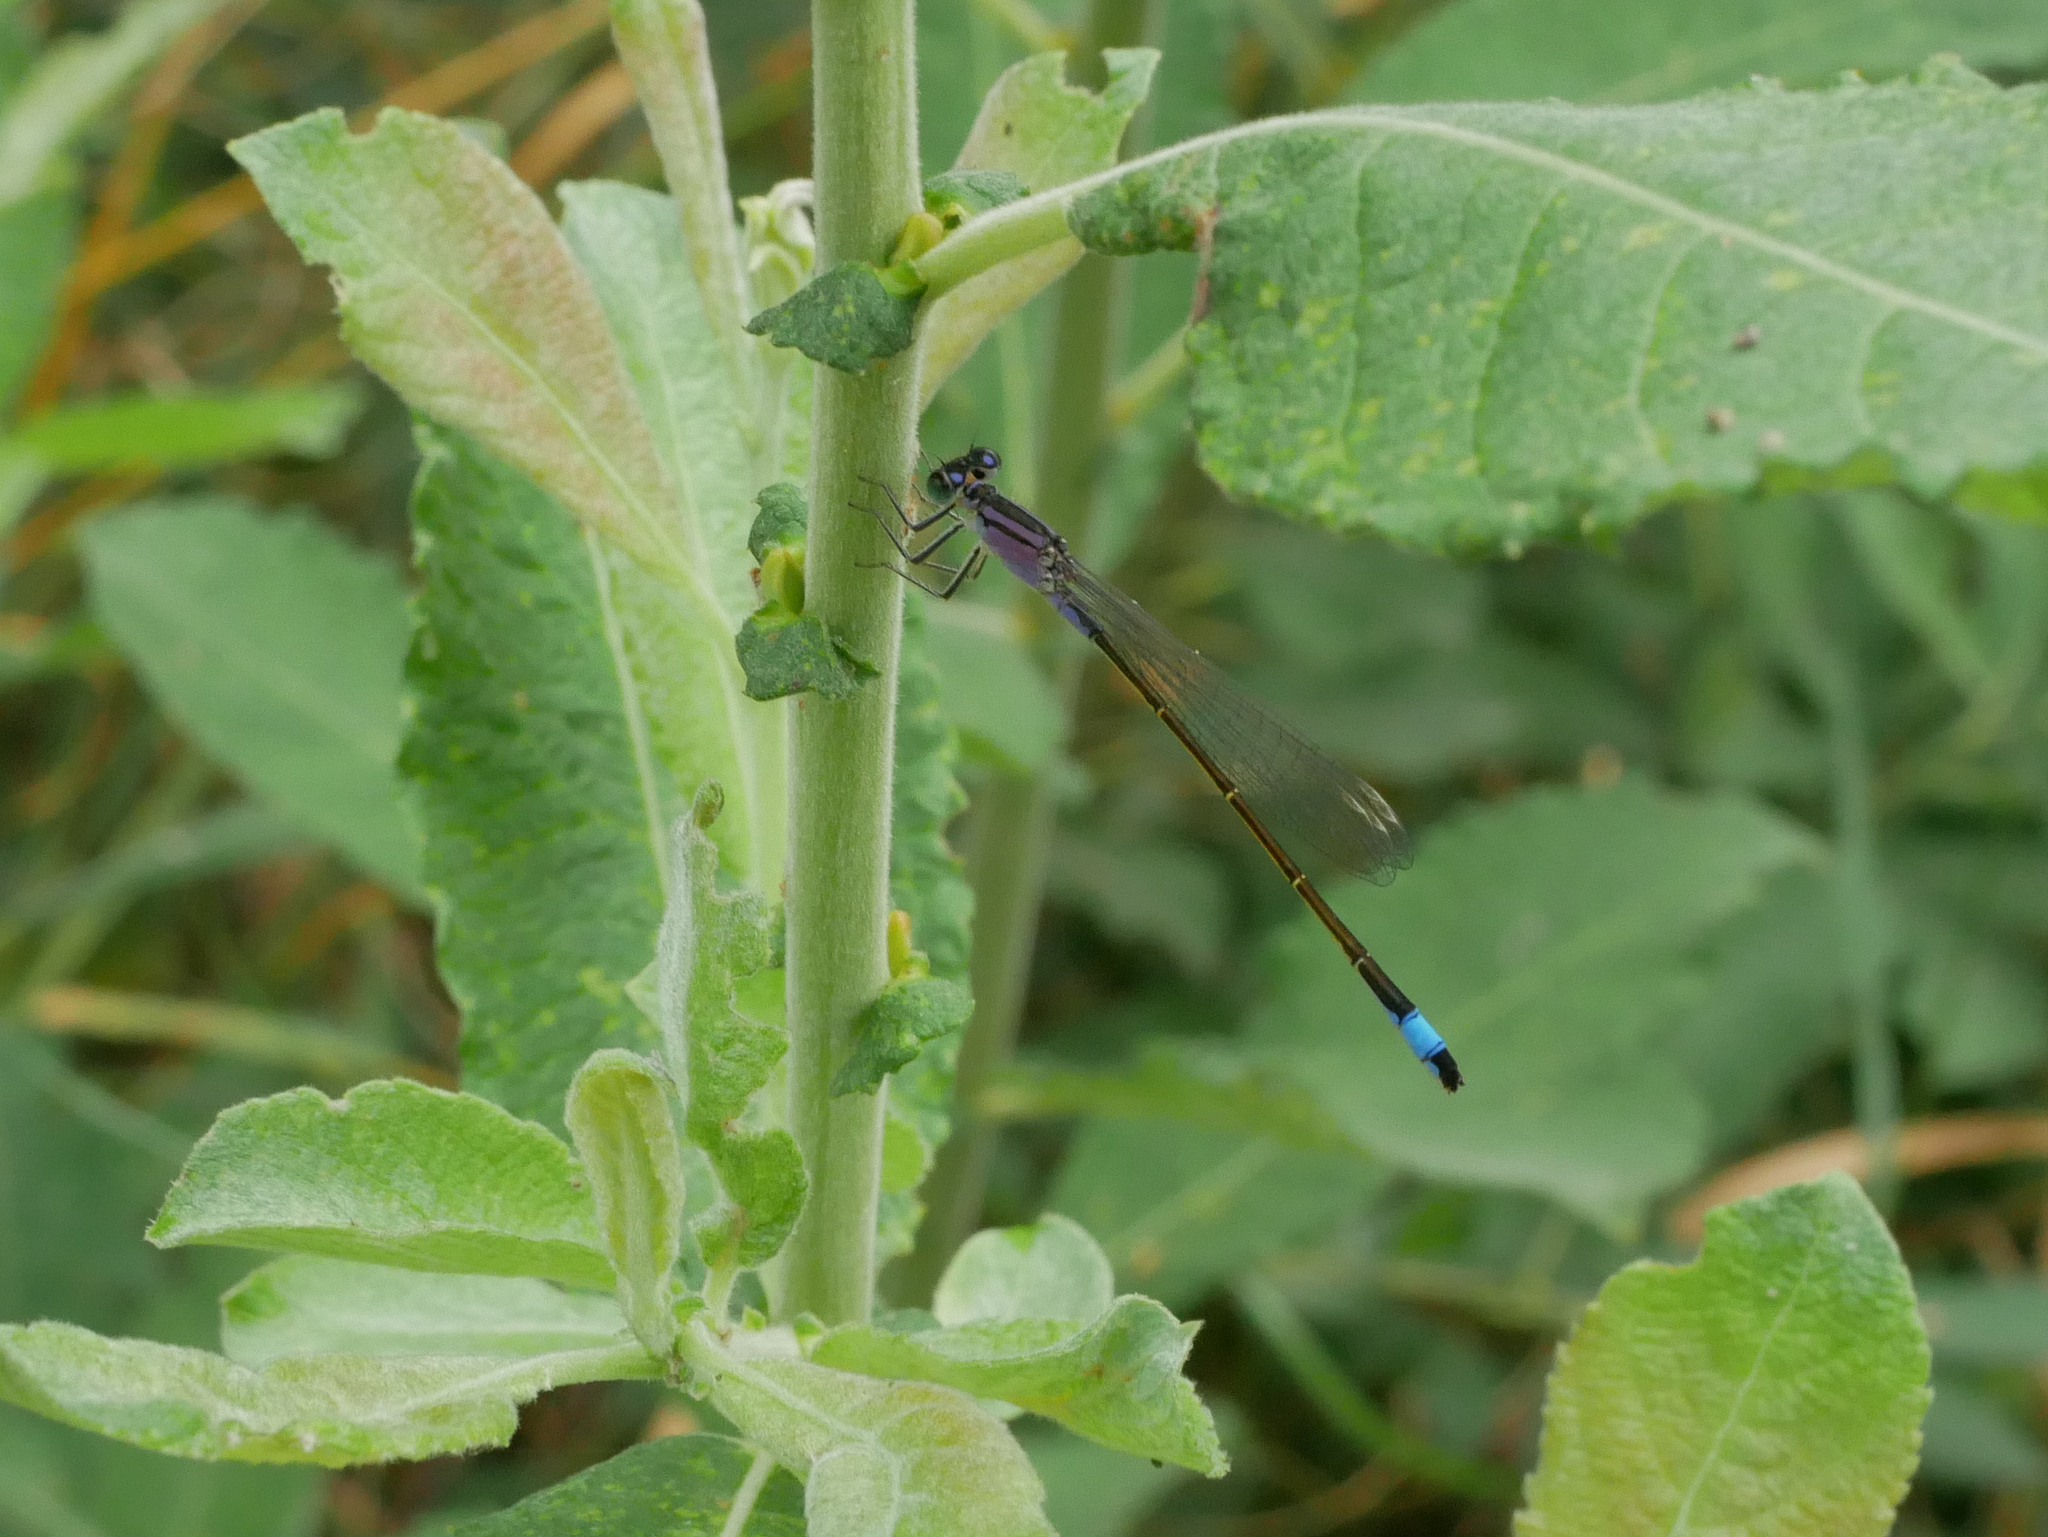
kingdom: Animalia
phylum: Arthropoda
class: Insecta
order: Odonata
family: Coenagrionidae
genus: Ischnura
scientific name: Ischnura elegans
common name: Blue-tailed damselfly
